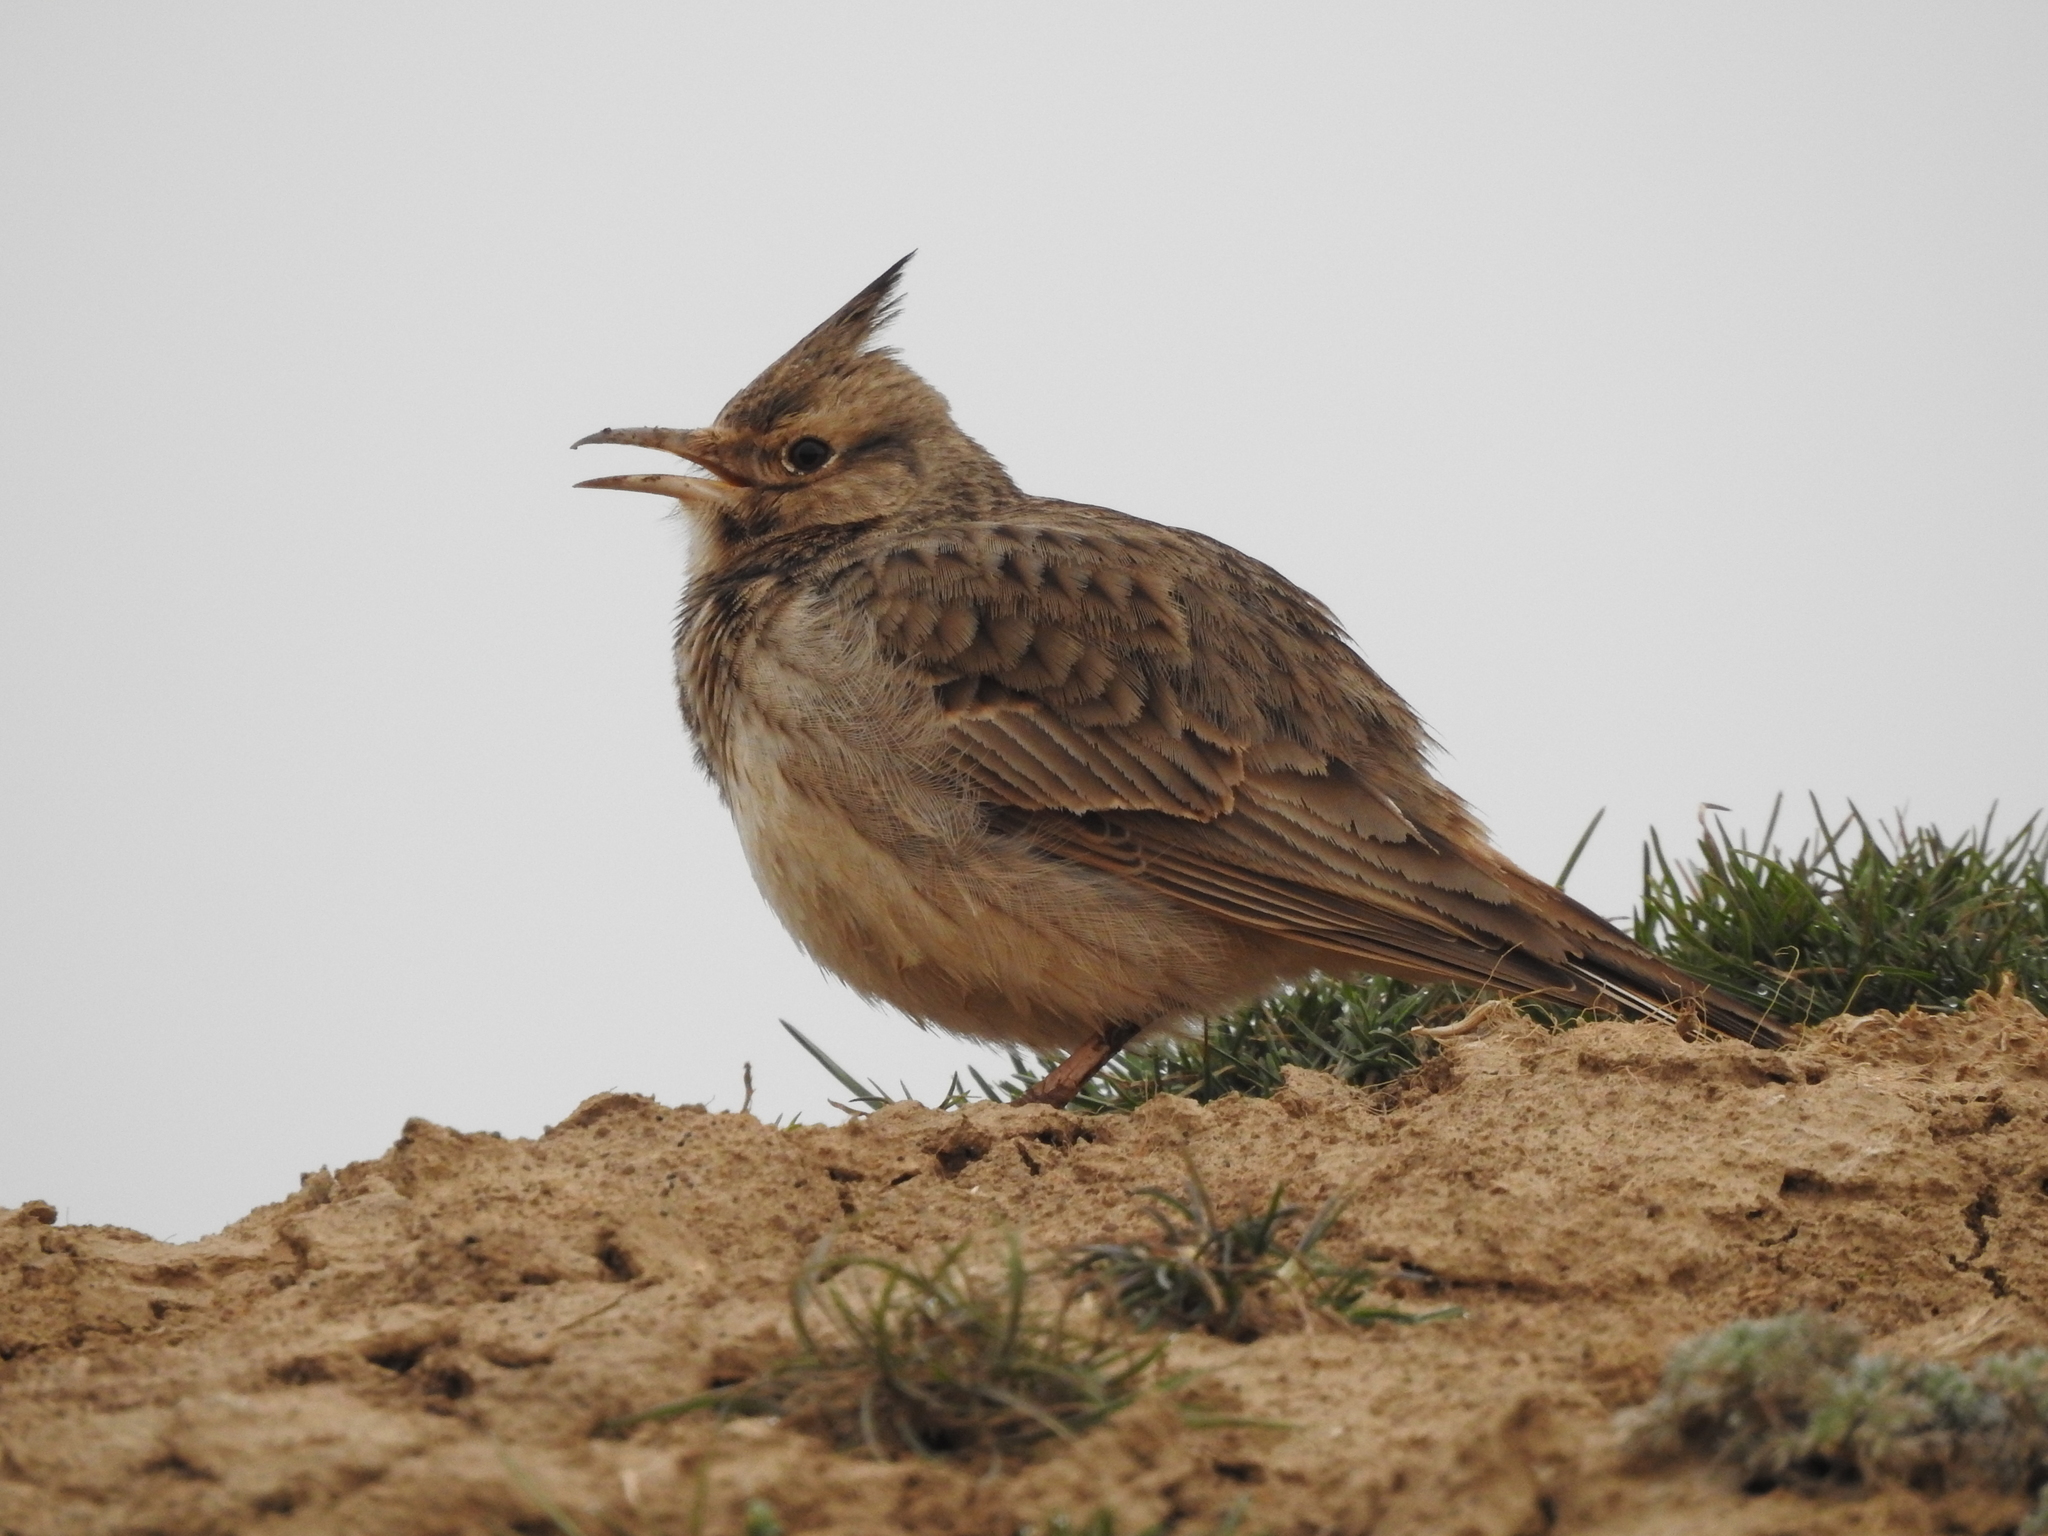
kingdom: Animalia
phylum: Chordata
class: Aves
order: Passeriformes
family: Alaudidae
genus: Galerida
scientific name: Galerida cristata
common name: Crested lark
